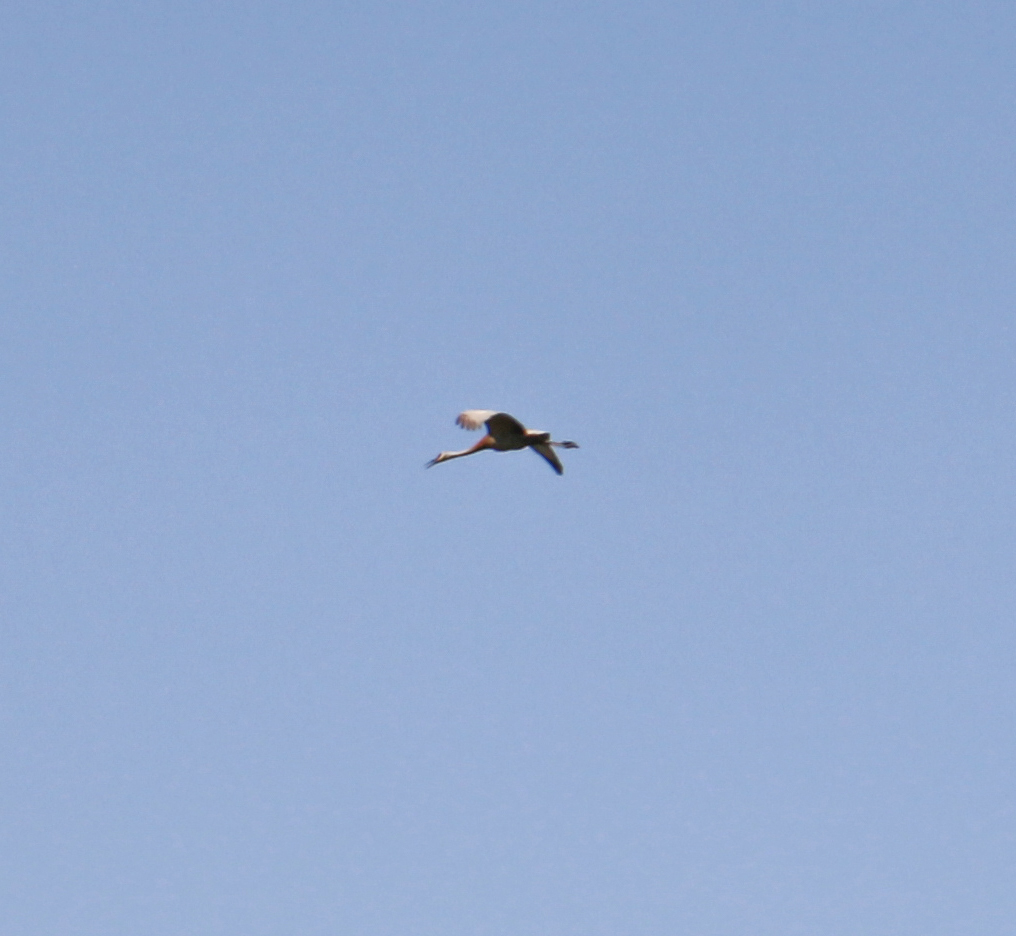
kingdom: Animalia
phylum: Chordata
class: Aves
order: Gruiformes
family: Gruidae
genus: Grus
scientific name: Grus canadensis
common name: Sandhill crane
